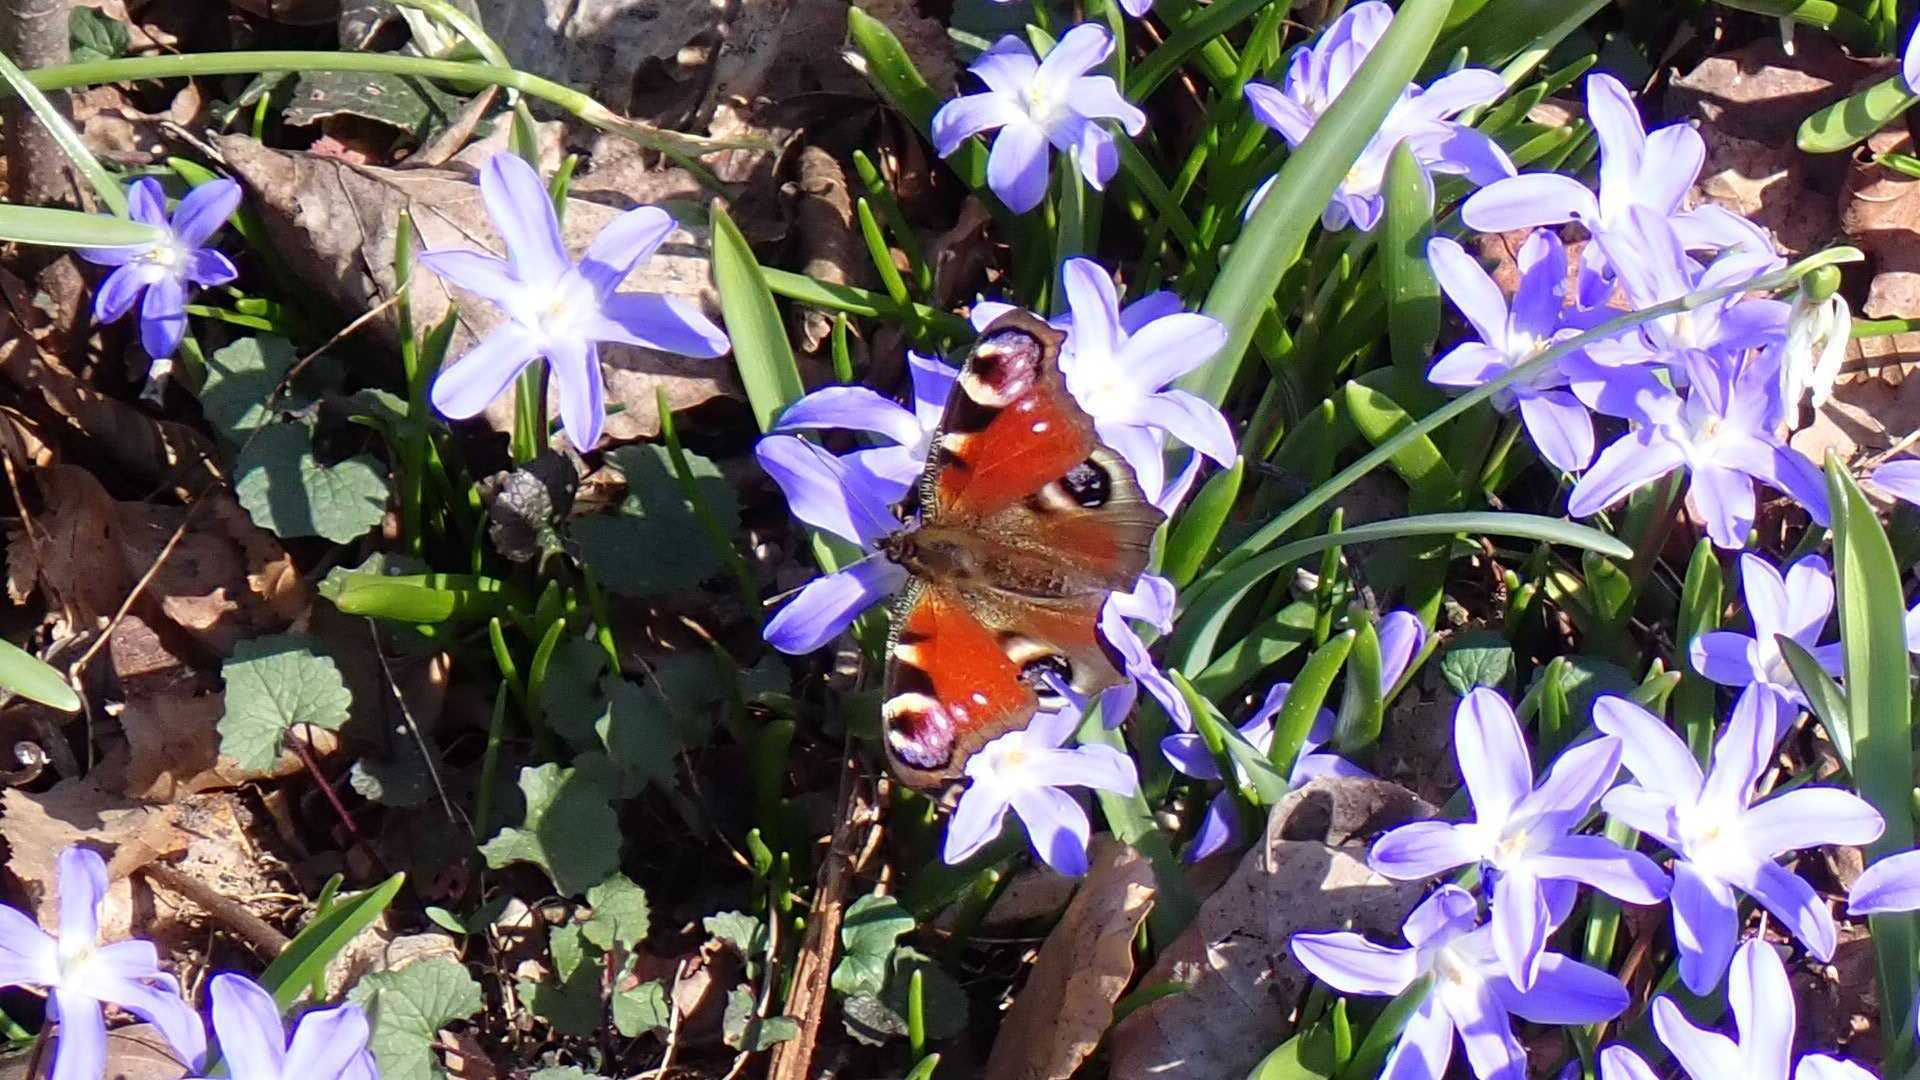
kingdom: Animalia
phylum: Arthropoda
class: Insecta
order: Lepidoptera
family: Nymphalidae
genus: Aglais
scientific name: Aglais io
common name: Peacock
